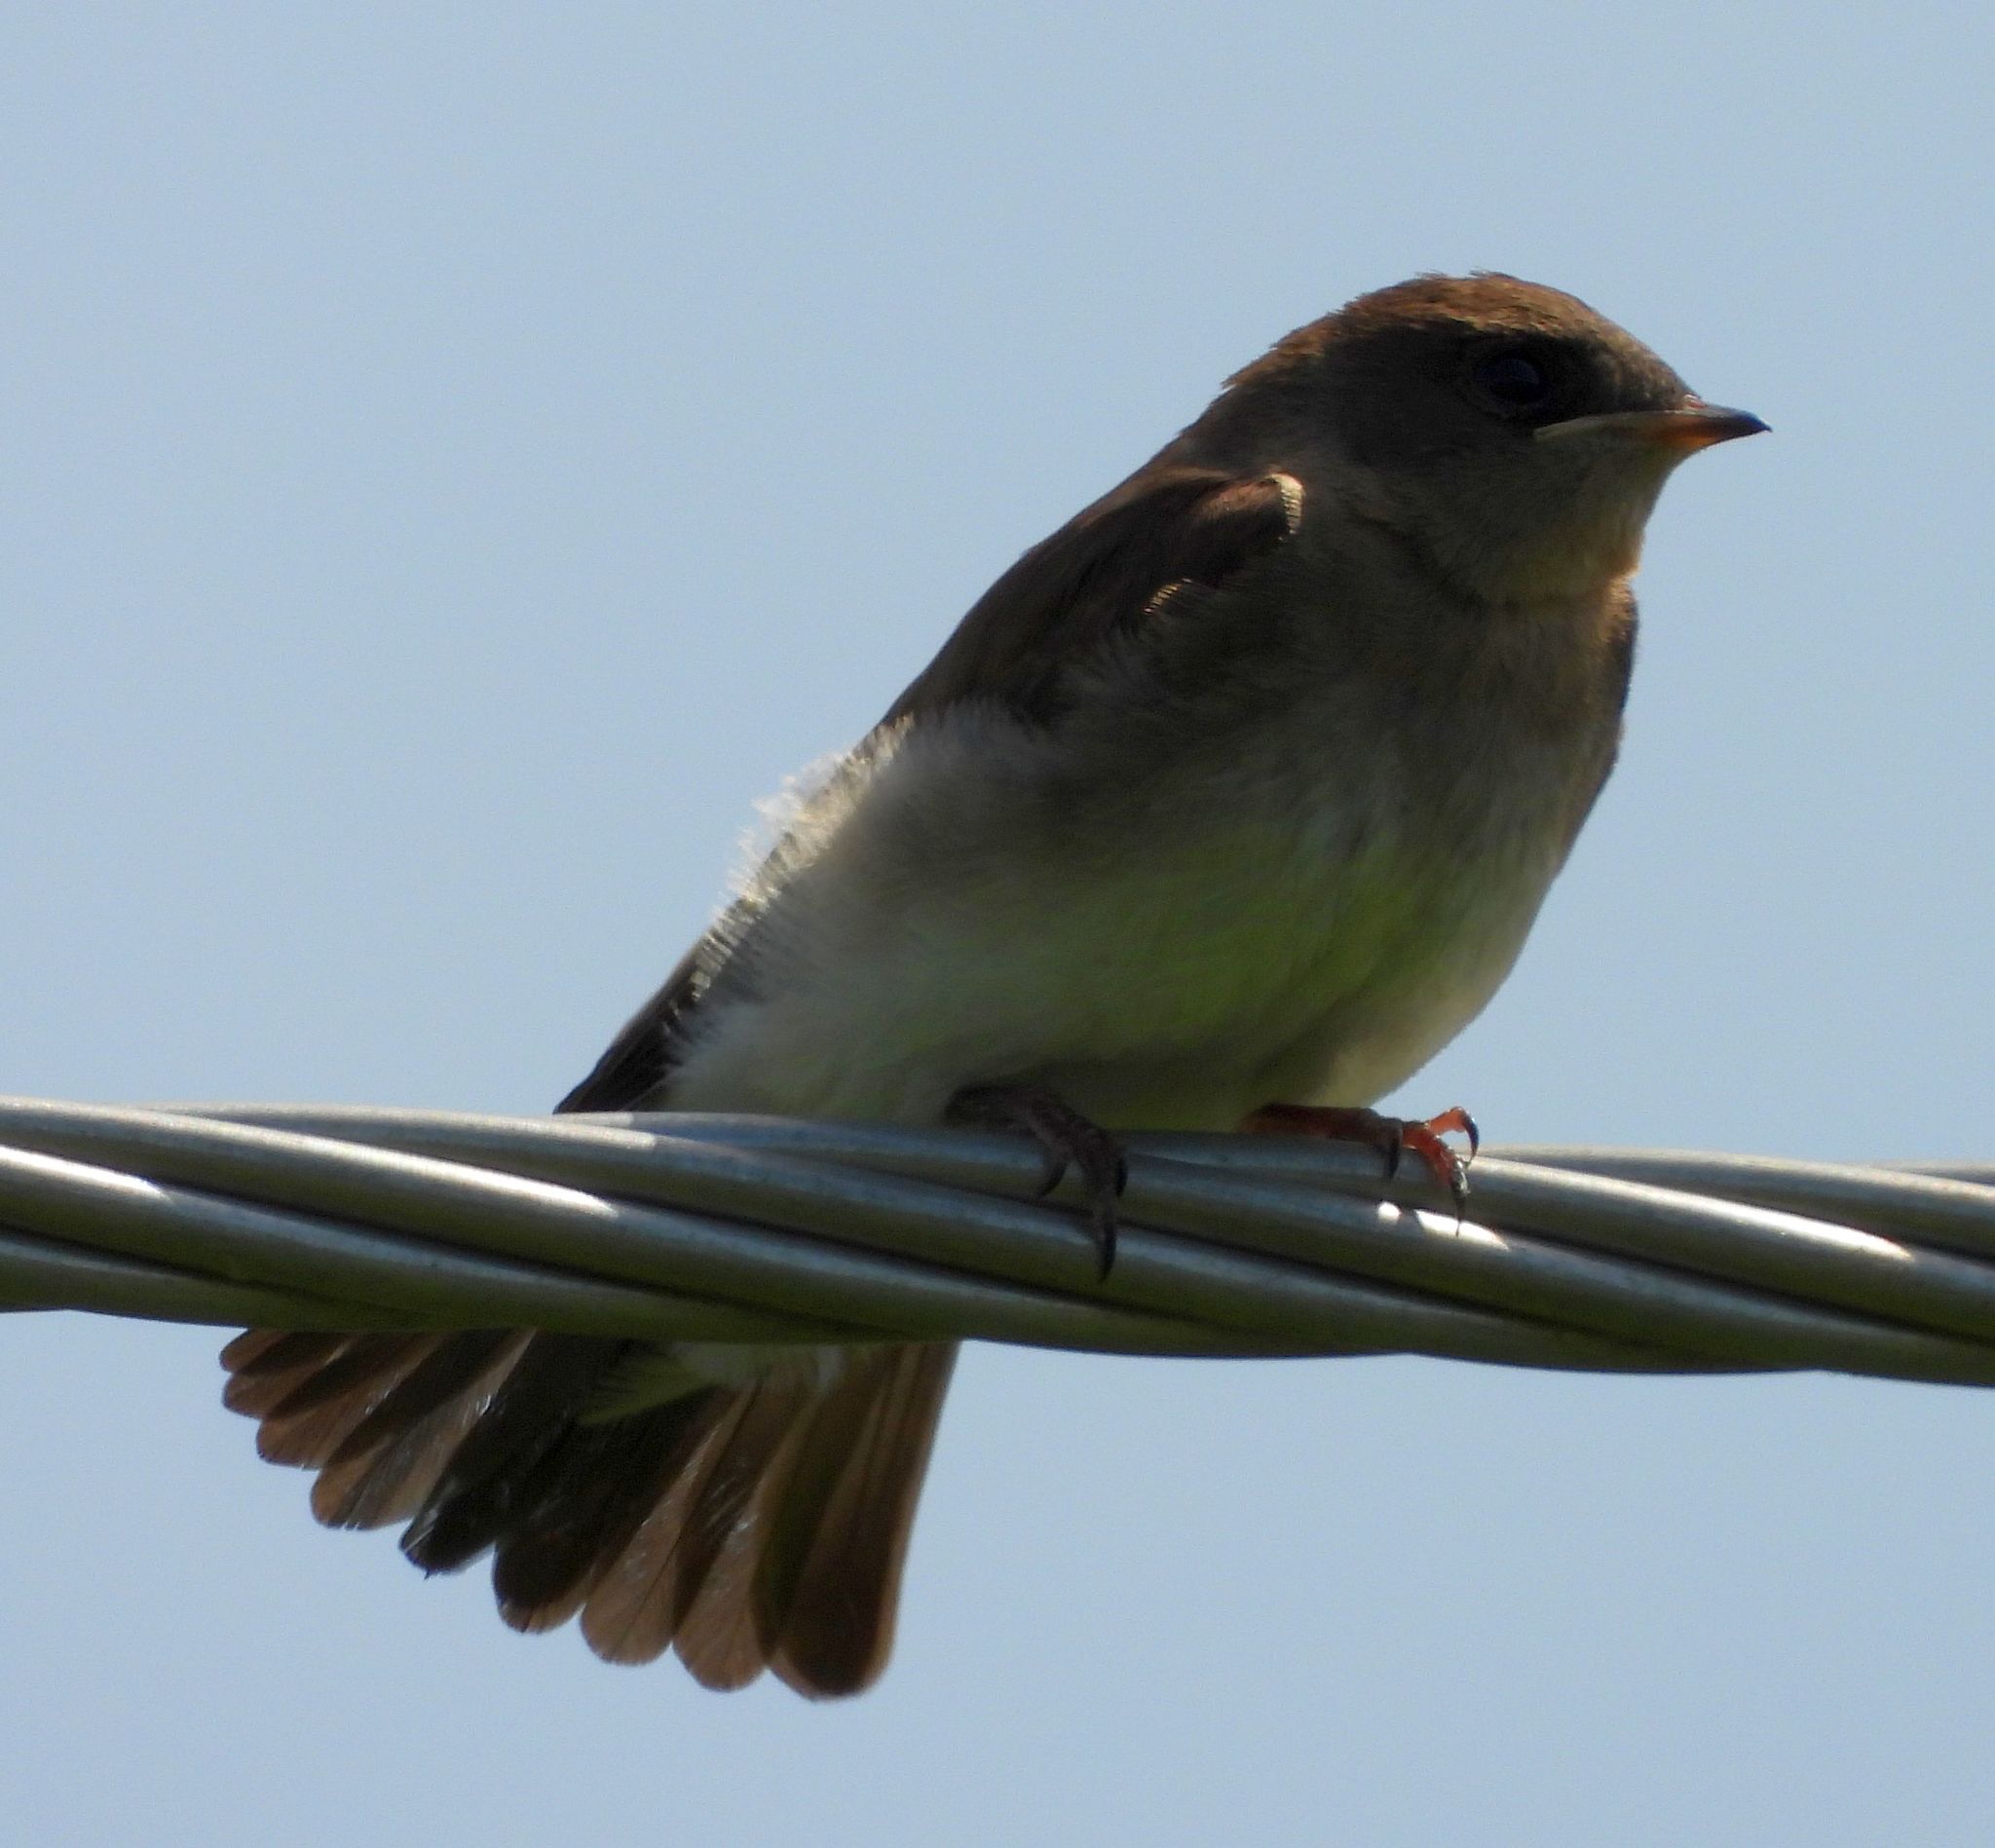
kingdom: Animalia
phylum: Chordata
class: Aves
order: Passeriformes
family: Hirundinidae
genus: Stelgidopteryx
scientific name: Stelgidopteryx serripennis
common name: Northern rough-winged swallow
